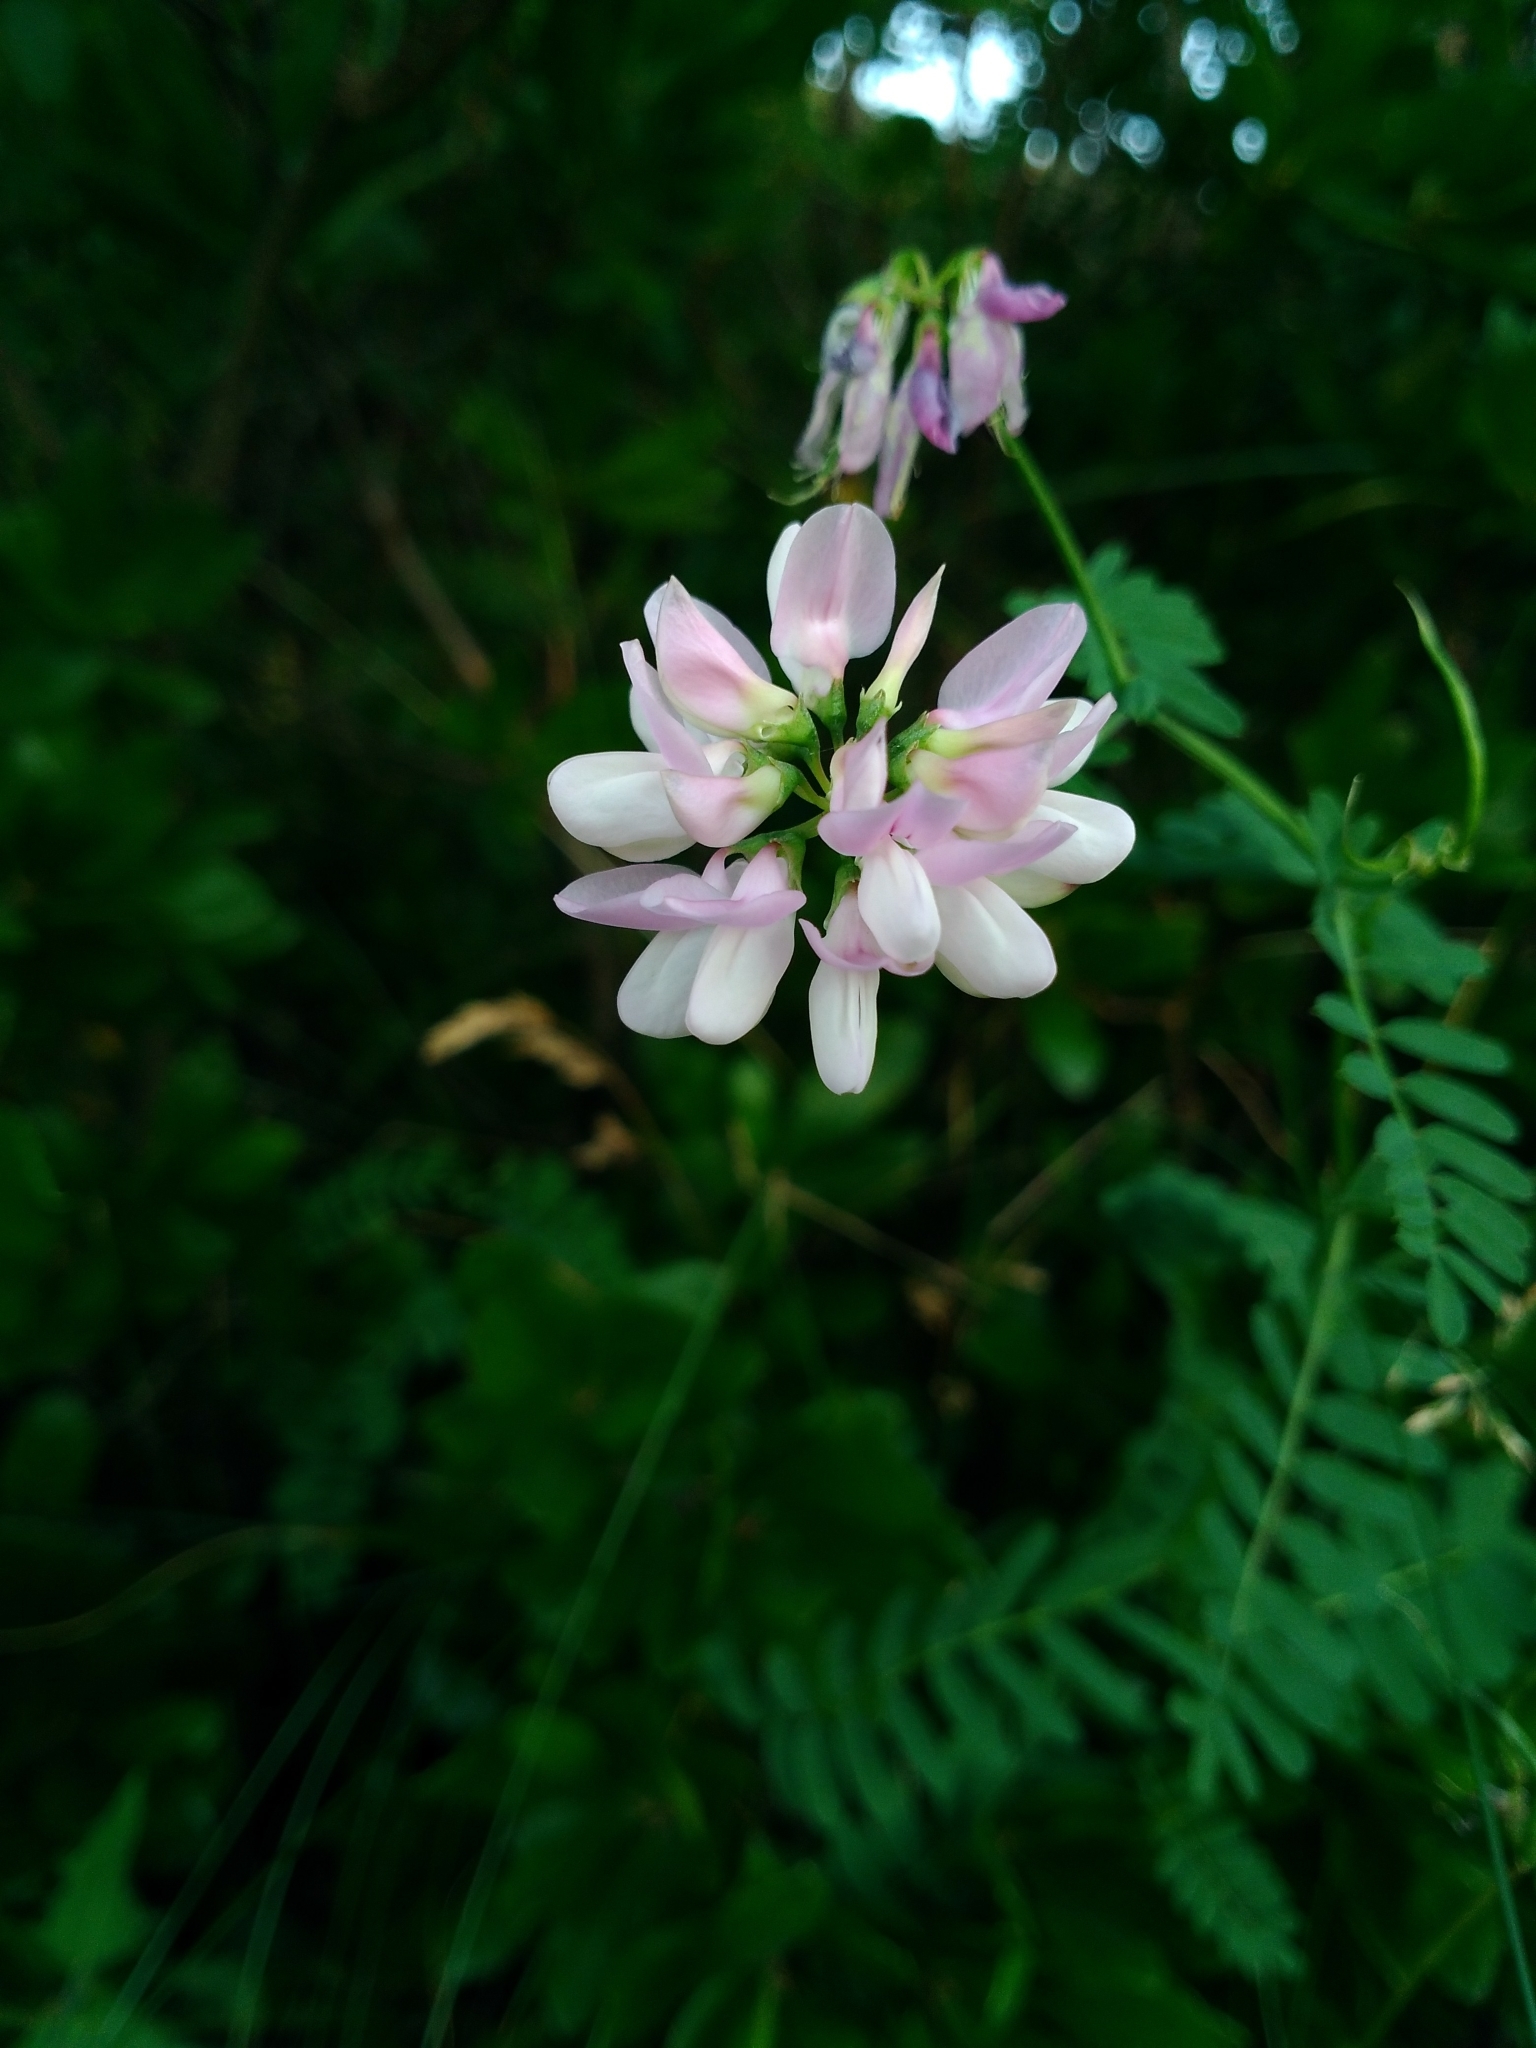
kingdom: Plantae
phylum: Tracheophyta
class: Magnoliopsida
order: Fabales
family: Fabaceae
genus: Coronilla
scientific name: Coronilla varia
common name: Crownvetch
